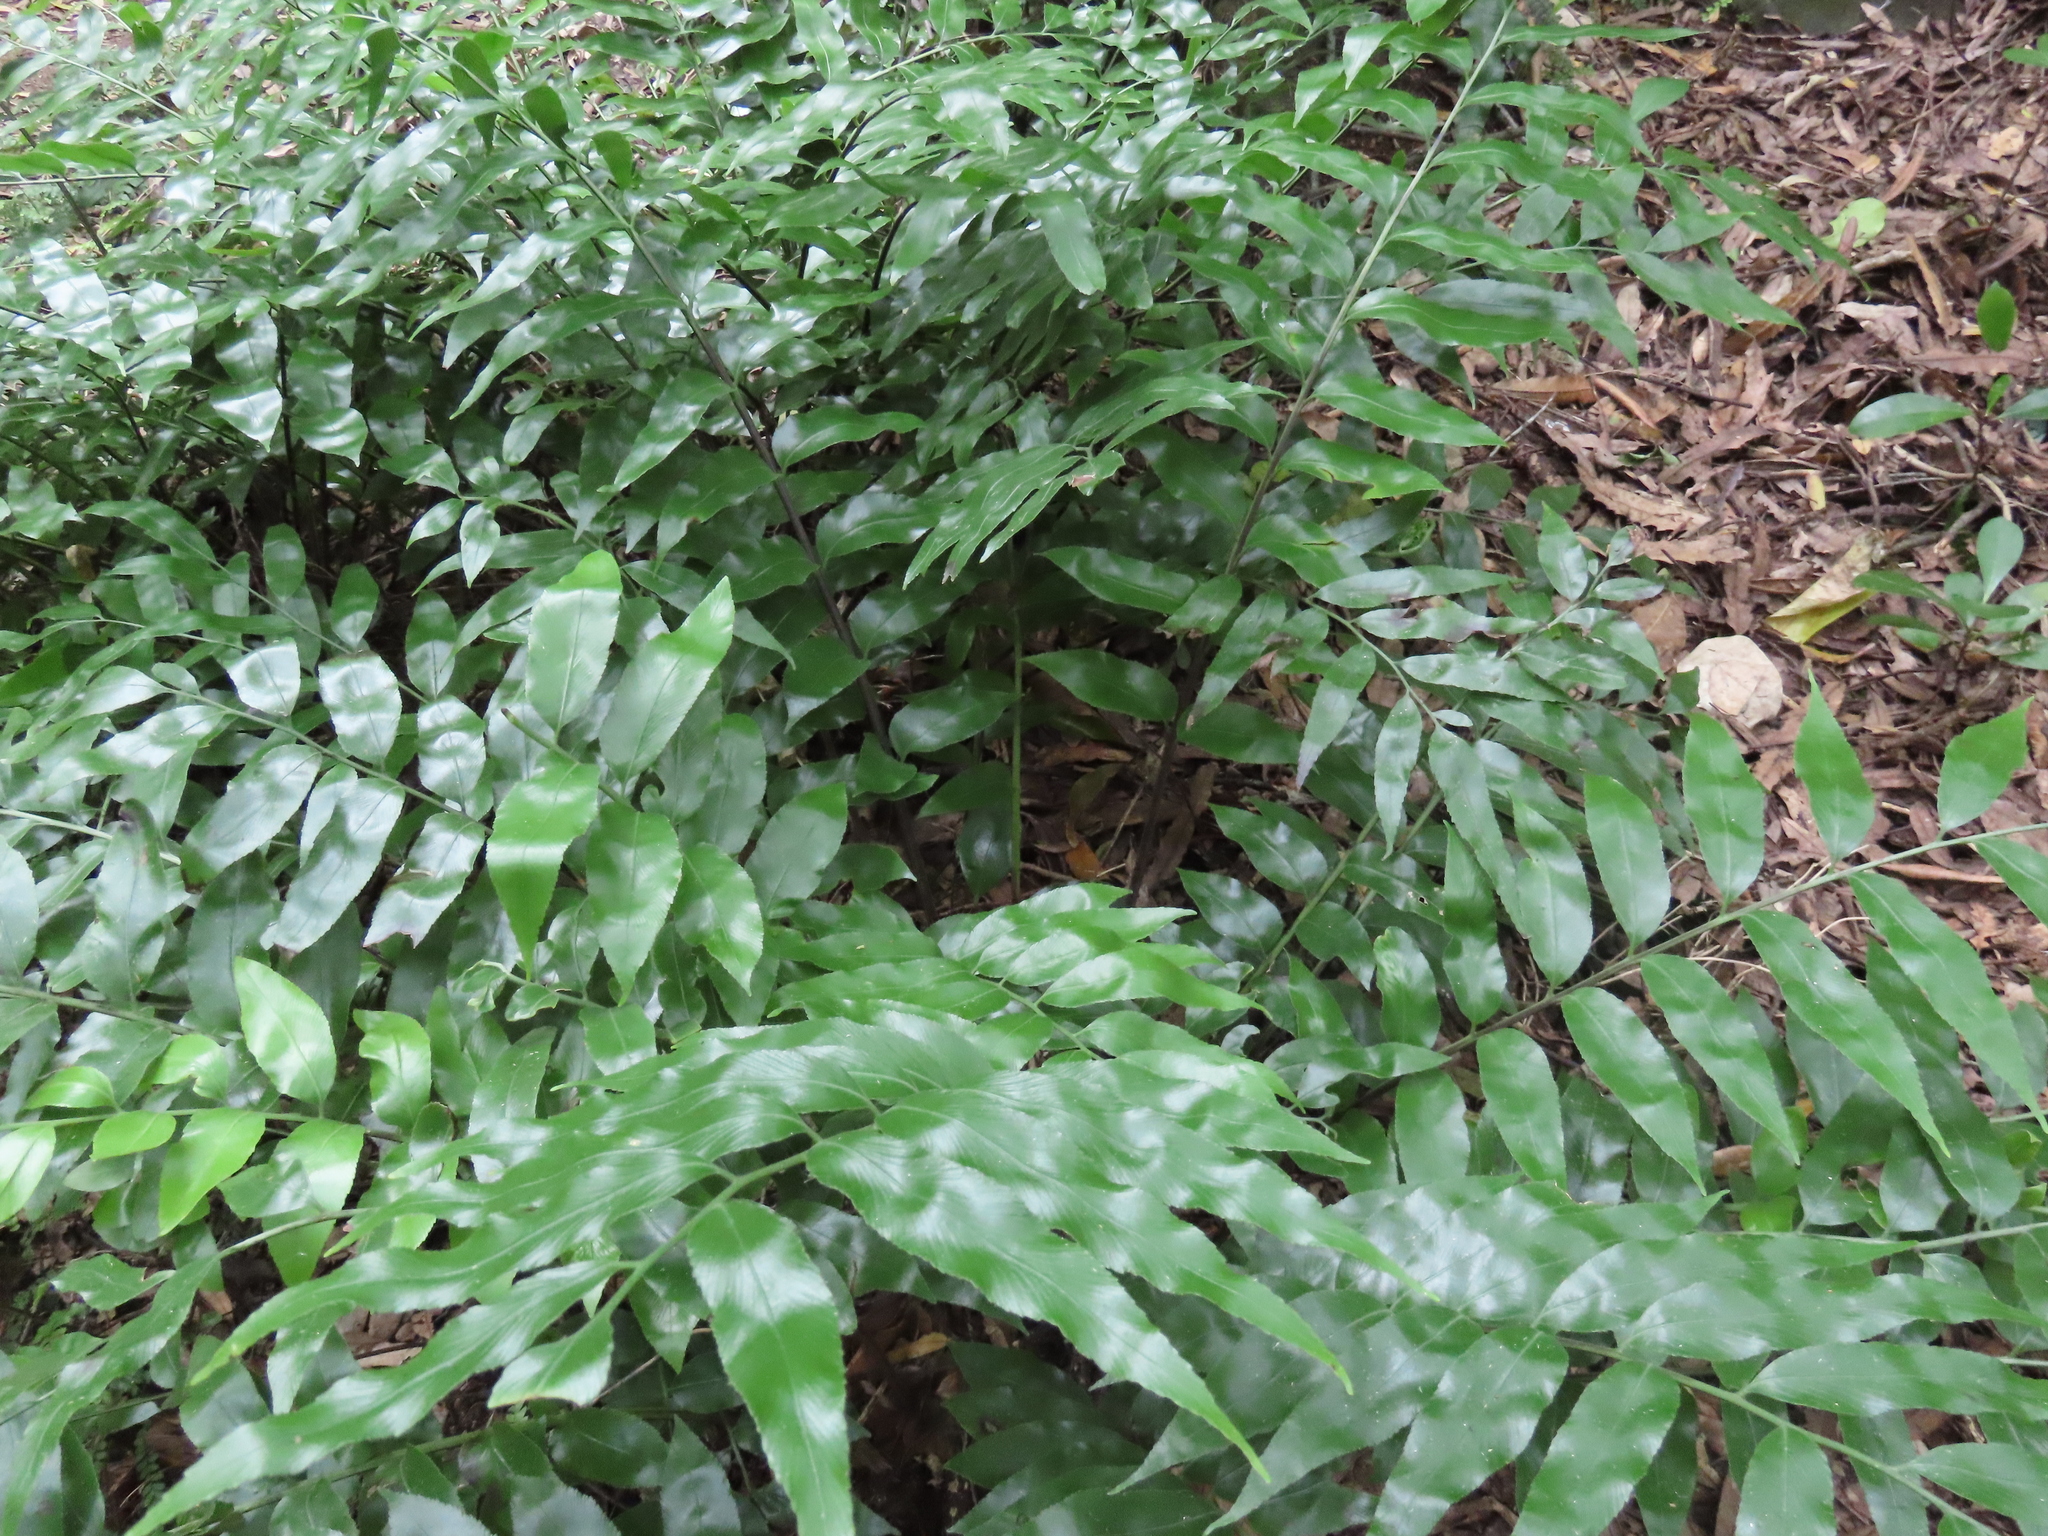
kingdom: Plantae
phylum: Tracheophyta
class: Polypodiopsida
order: Polypodiales
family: Aspleniaceae
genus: Asplenium
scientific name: Asplenium oblongifolium
